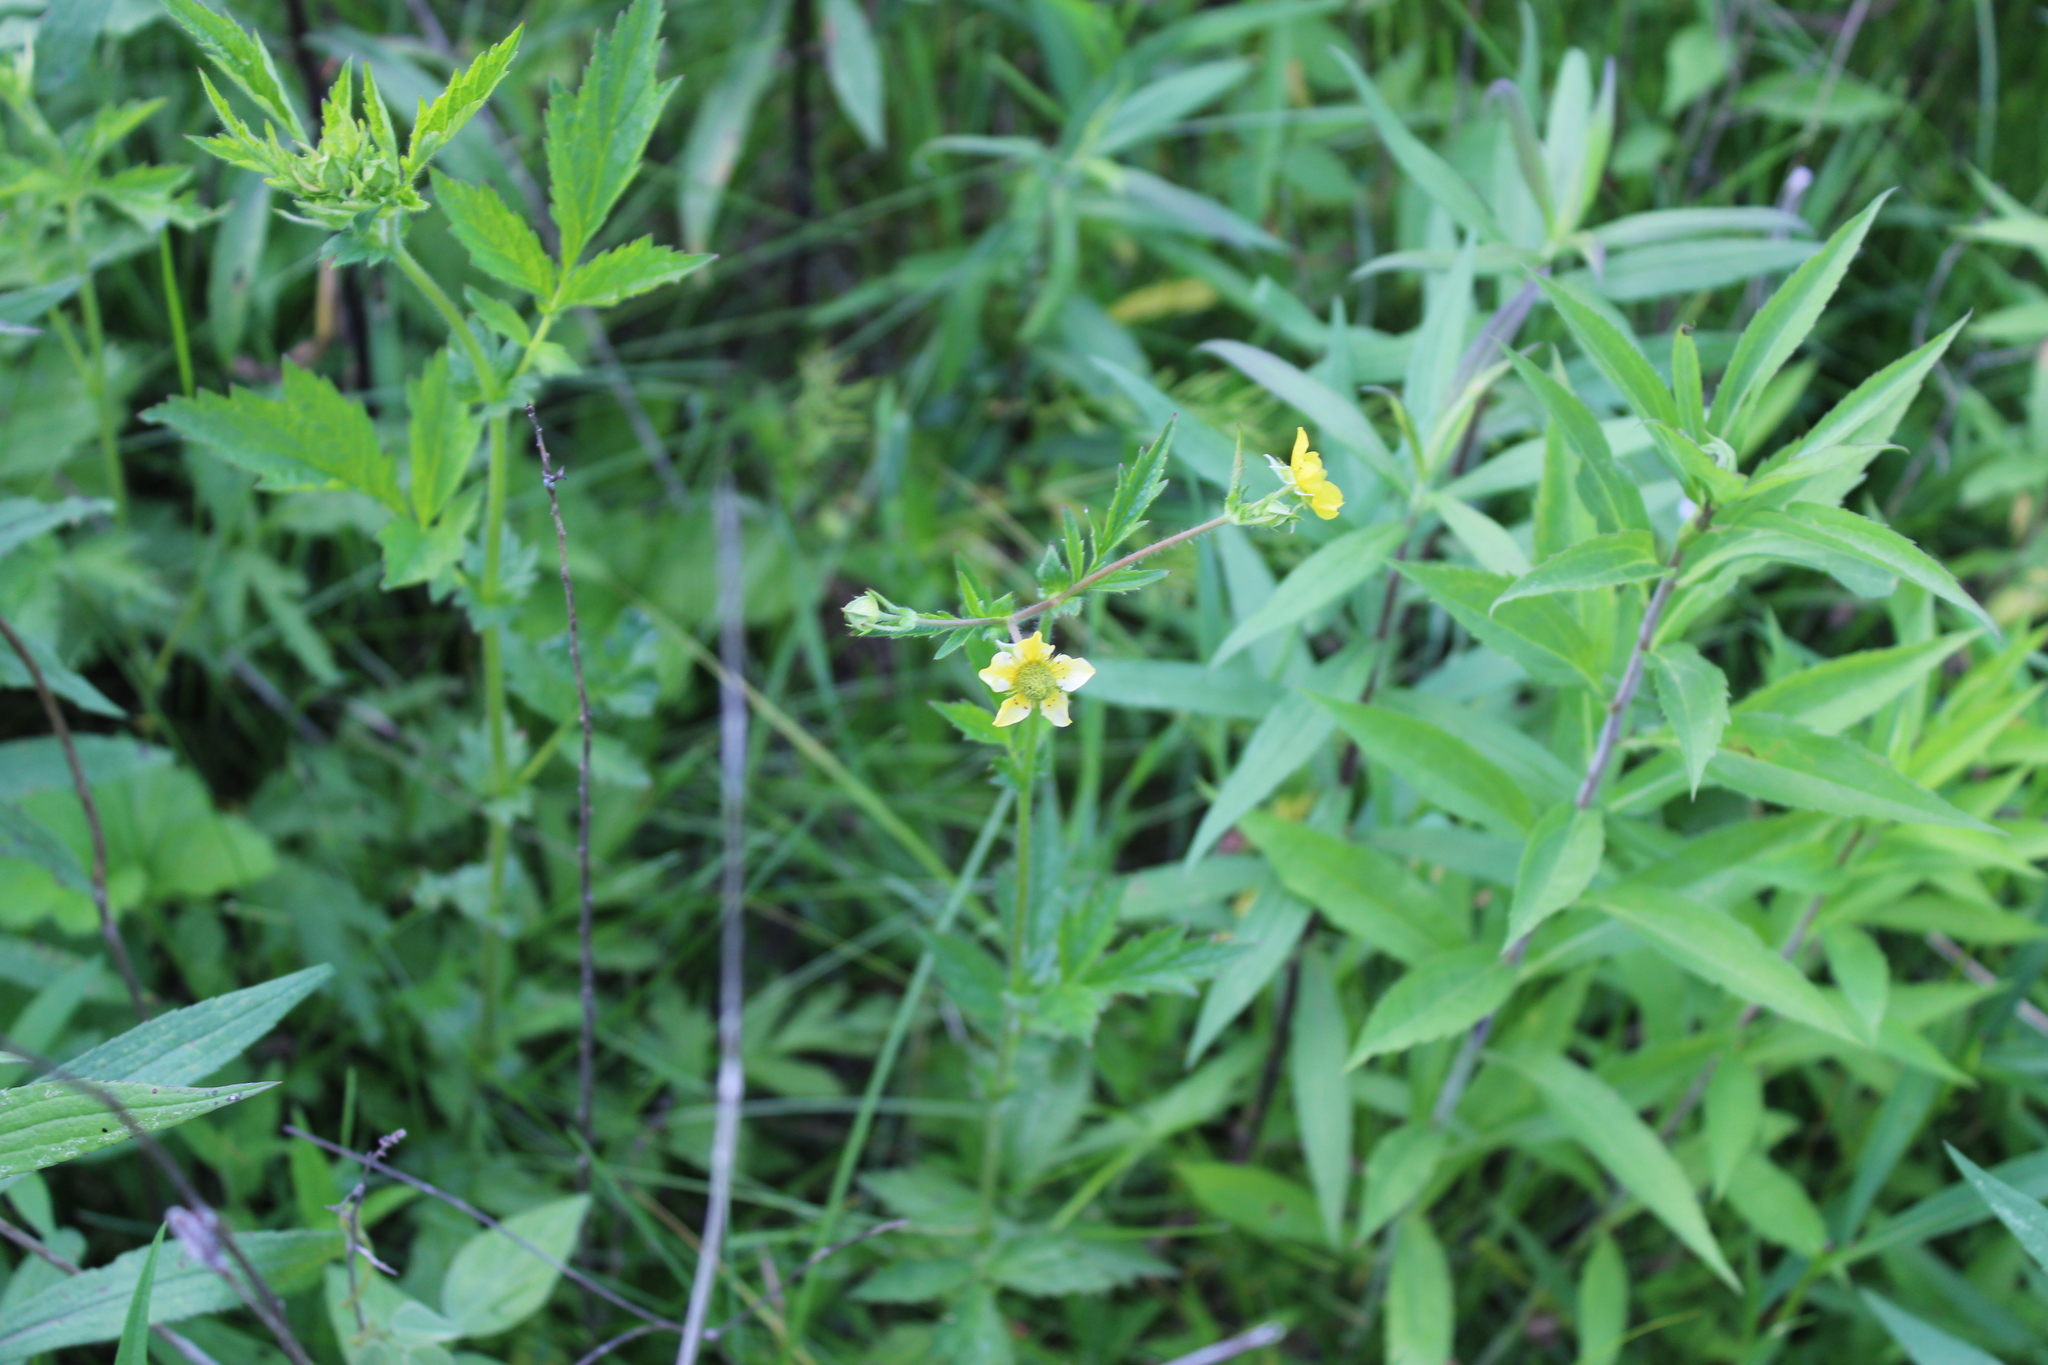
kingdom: Plantae
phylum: Tracheophyta
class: Magnoliopsida
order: Rosales
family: Rosaceae
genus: Geum
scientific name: Geum aleppicum
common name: Yellow avens
